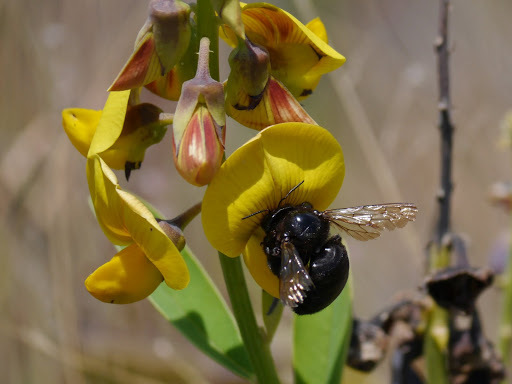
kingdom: Animalia
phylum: Arthropoda
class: Insecta
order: Hymenoptera
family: Apidae
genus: Xylocopa
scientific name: Xylocopa sonorina
